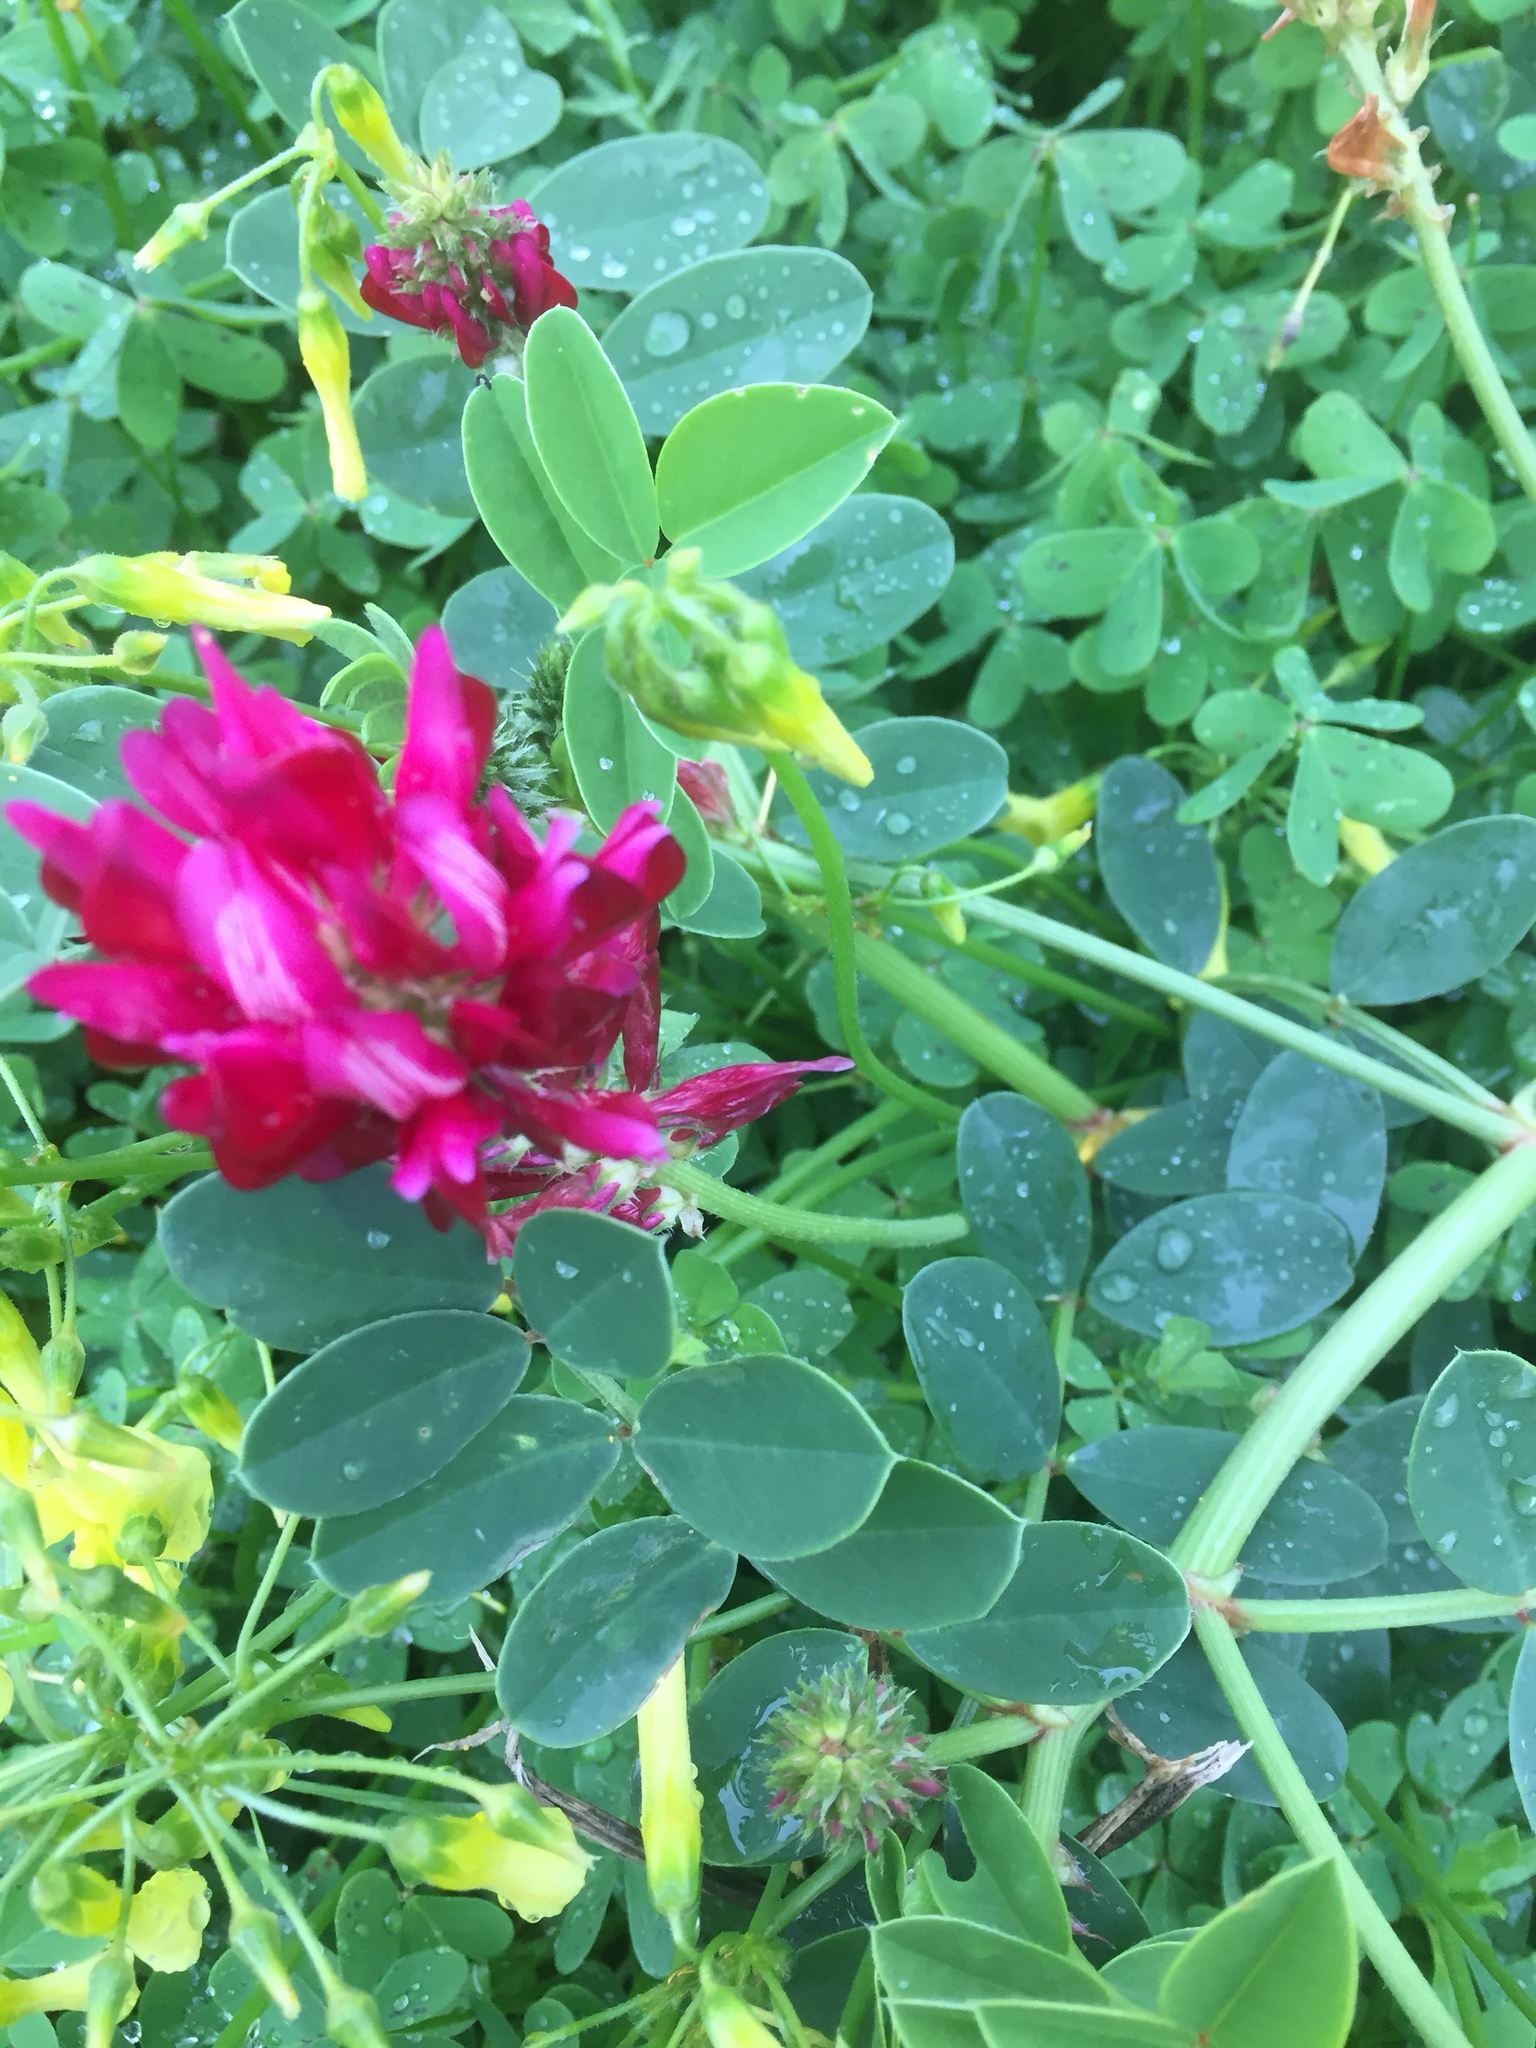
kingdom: Plantae
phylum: Tracheophyta
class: Magnoliopsida
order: Fabales
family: Fabaceae
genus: Sulla
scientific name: Sulla coronaria
